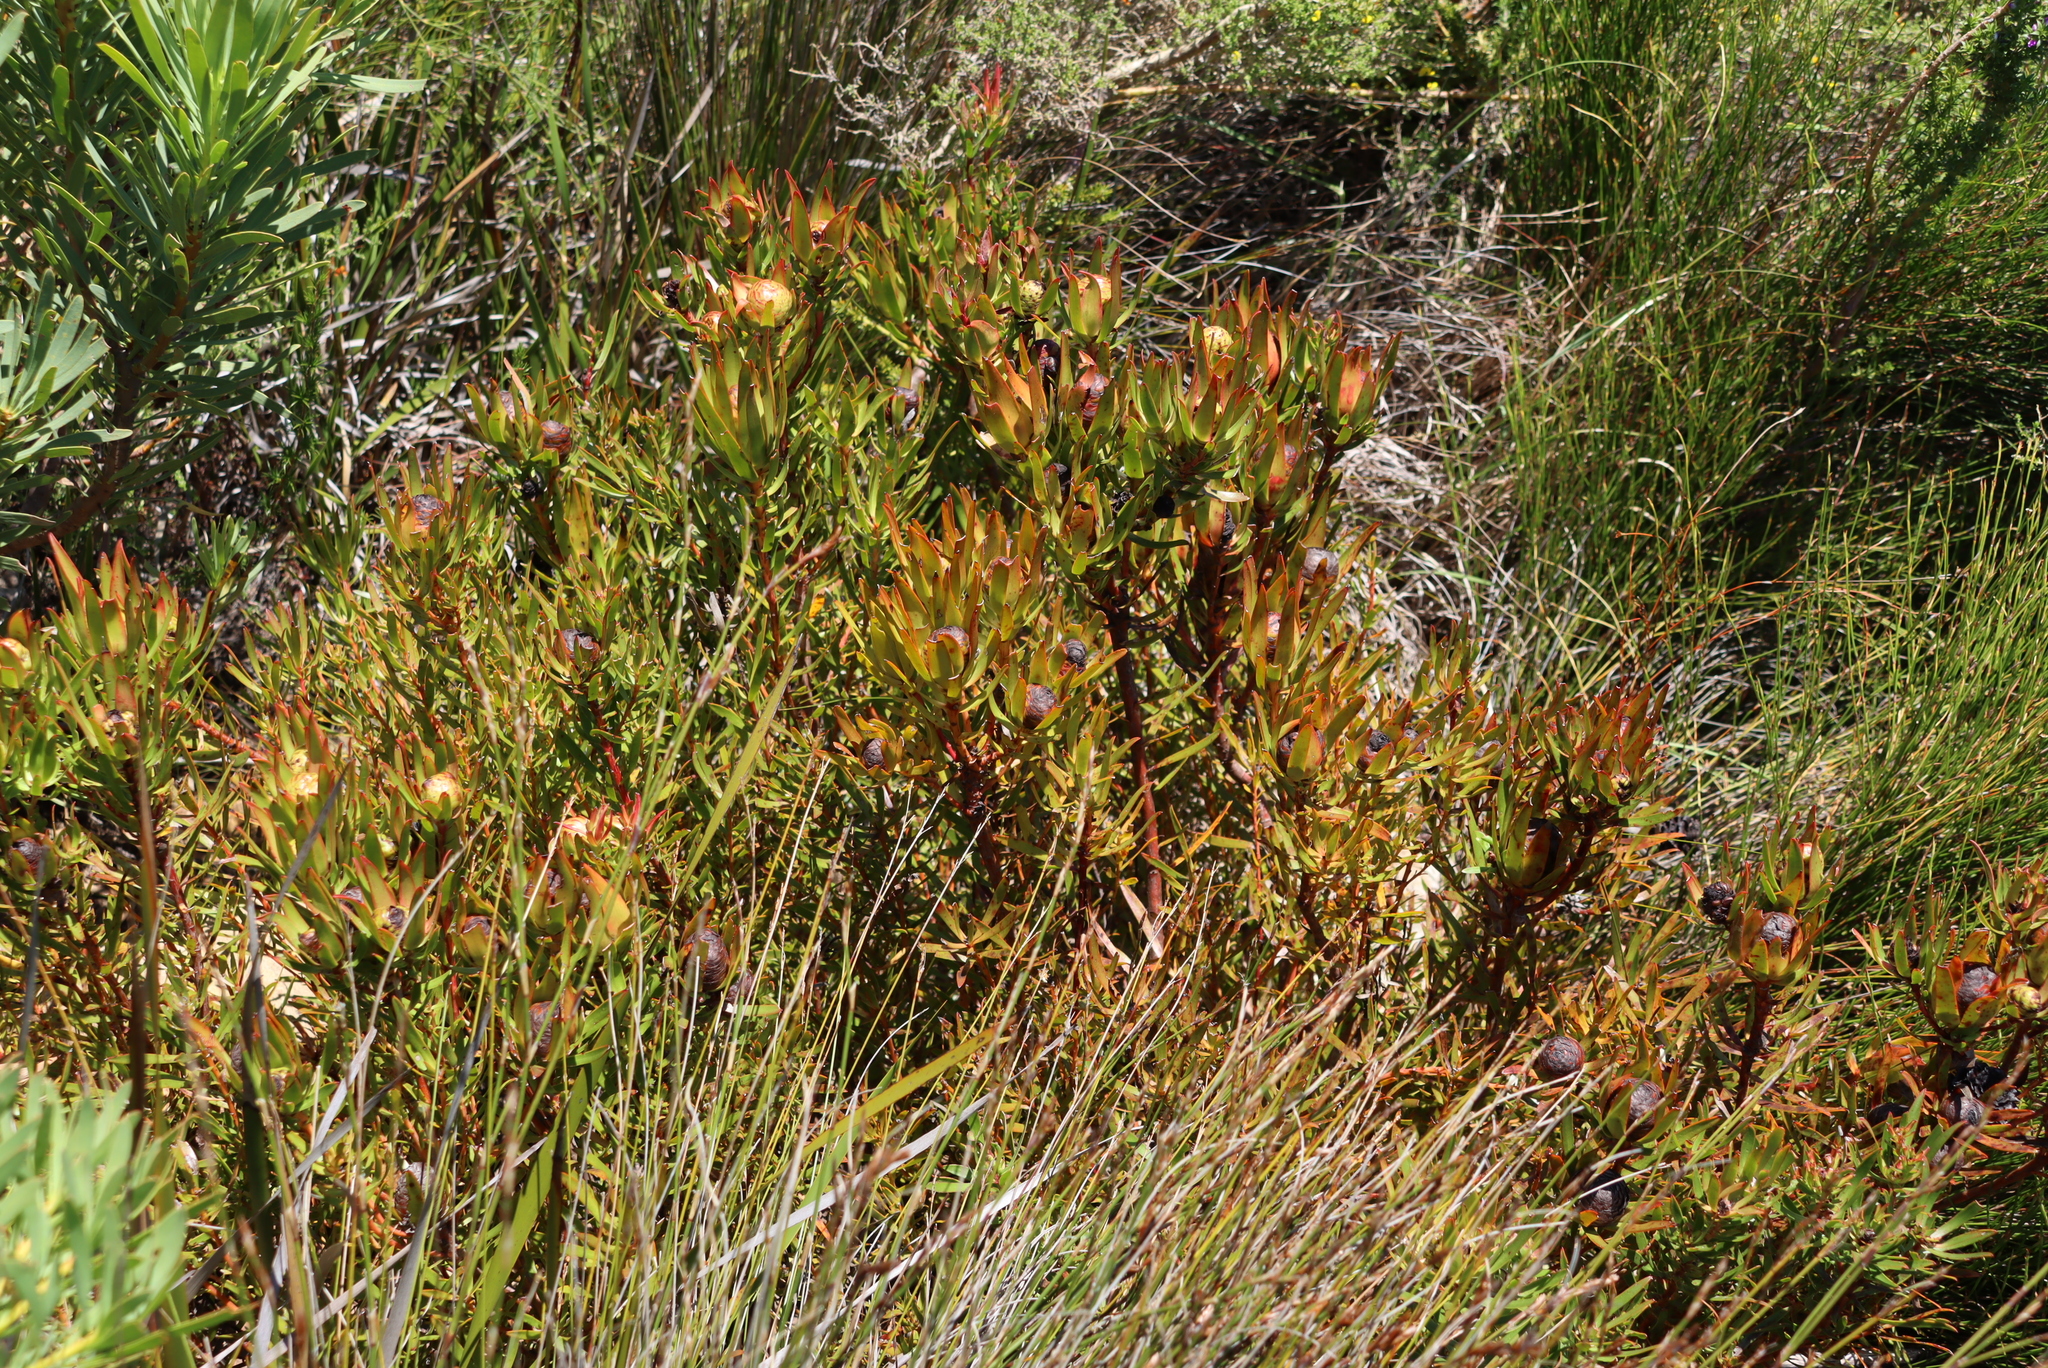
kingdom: Plantae
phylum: Tracheophyta
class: Magnoliopsida
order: Proteales
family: Proteaceae
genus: Leucadendron
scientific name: Leucadendron spissifolium
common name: Spear-leaf conebush
